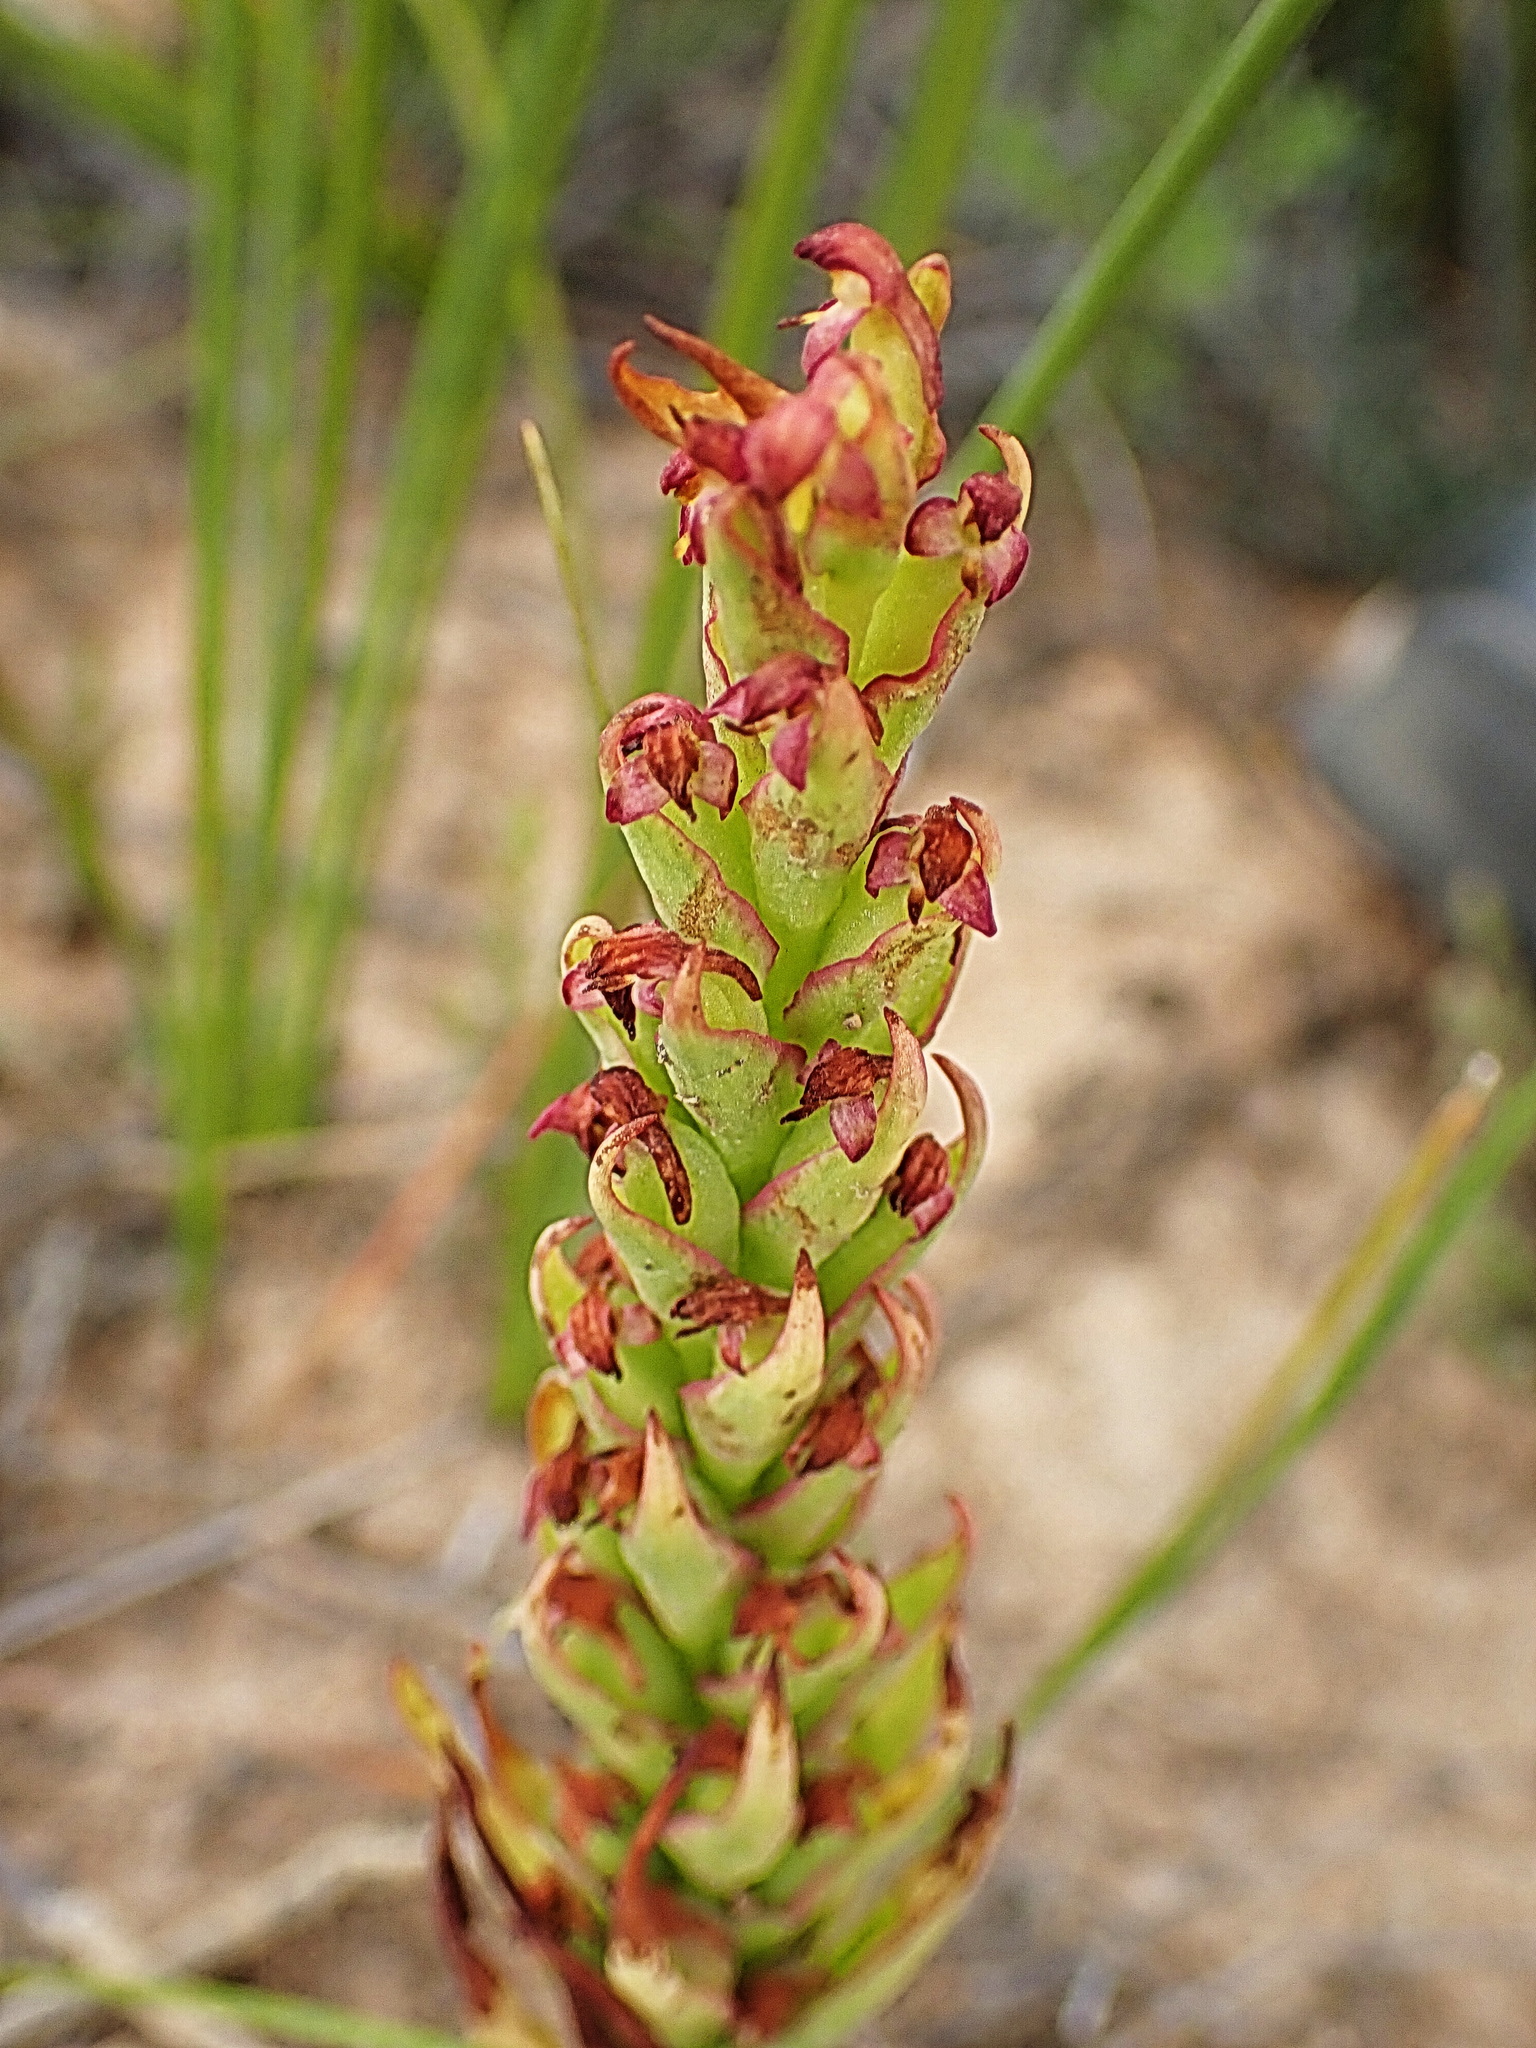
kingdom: Plantae
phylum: Tracheophyta
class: Liliopsida
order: Asparagales
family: Orchidaceae
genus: Disa
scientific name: Disa bracteata
